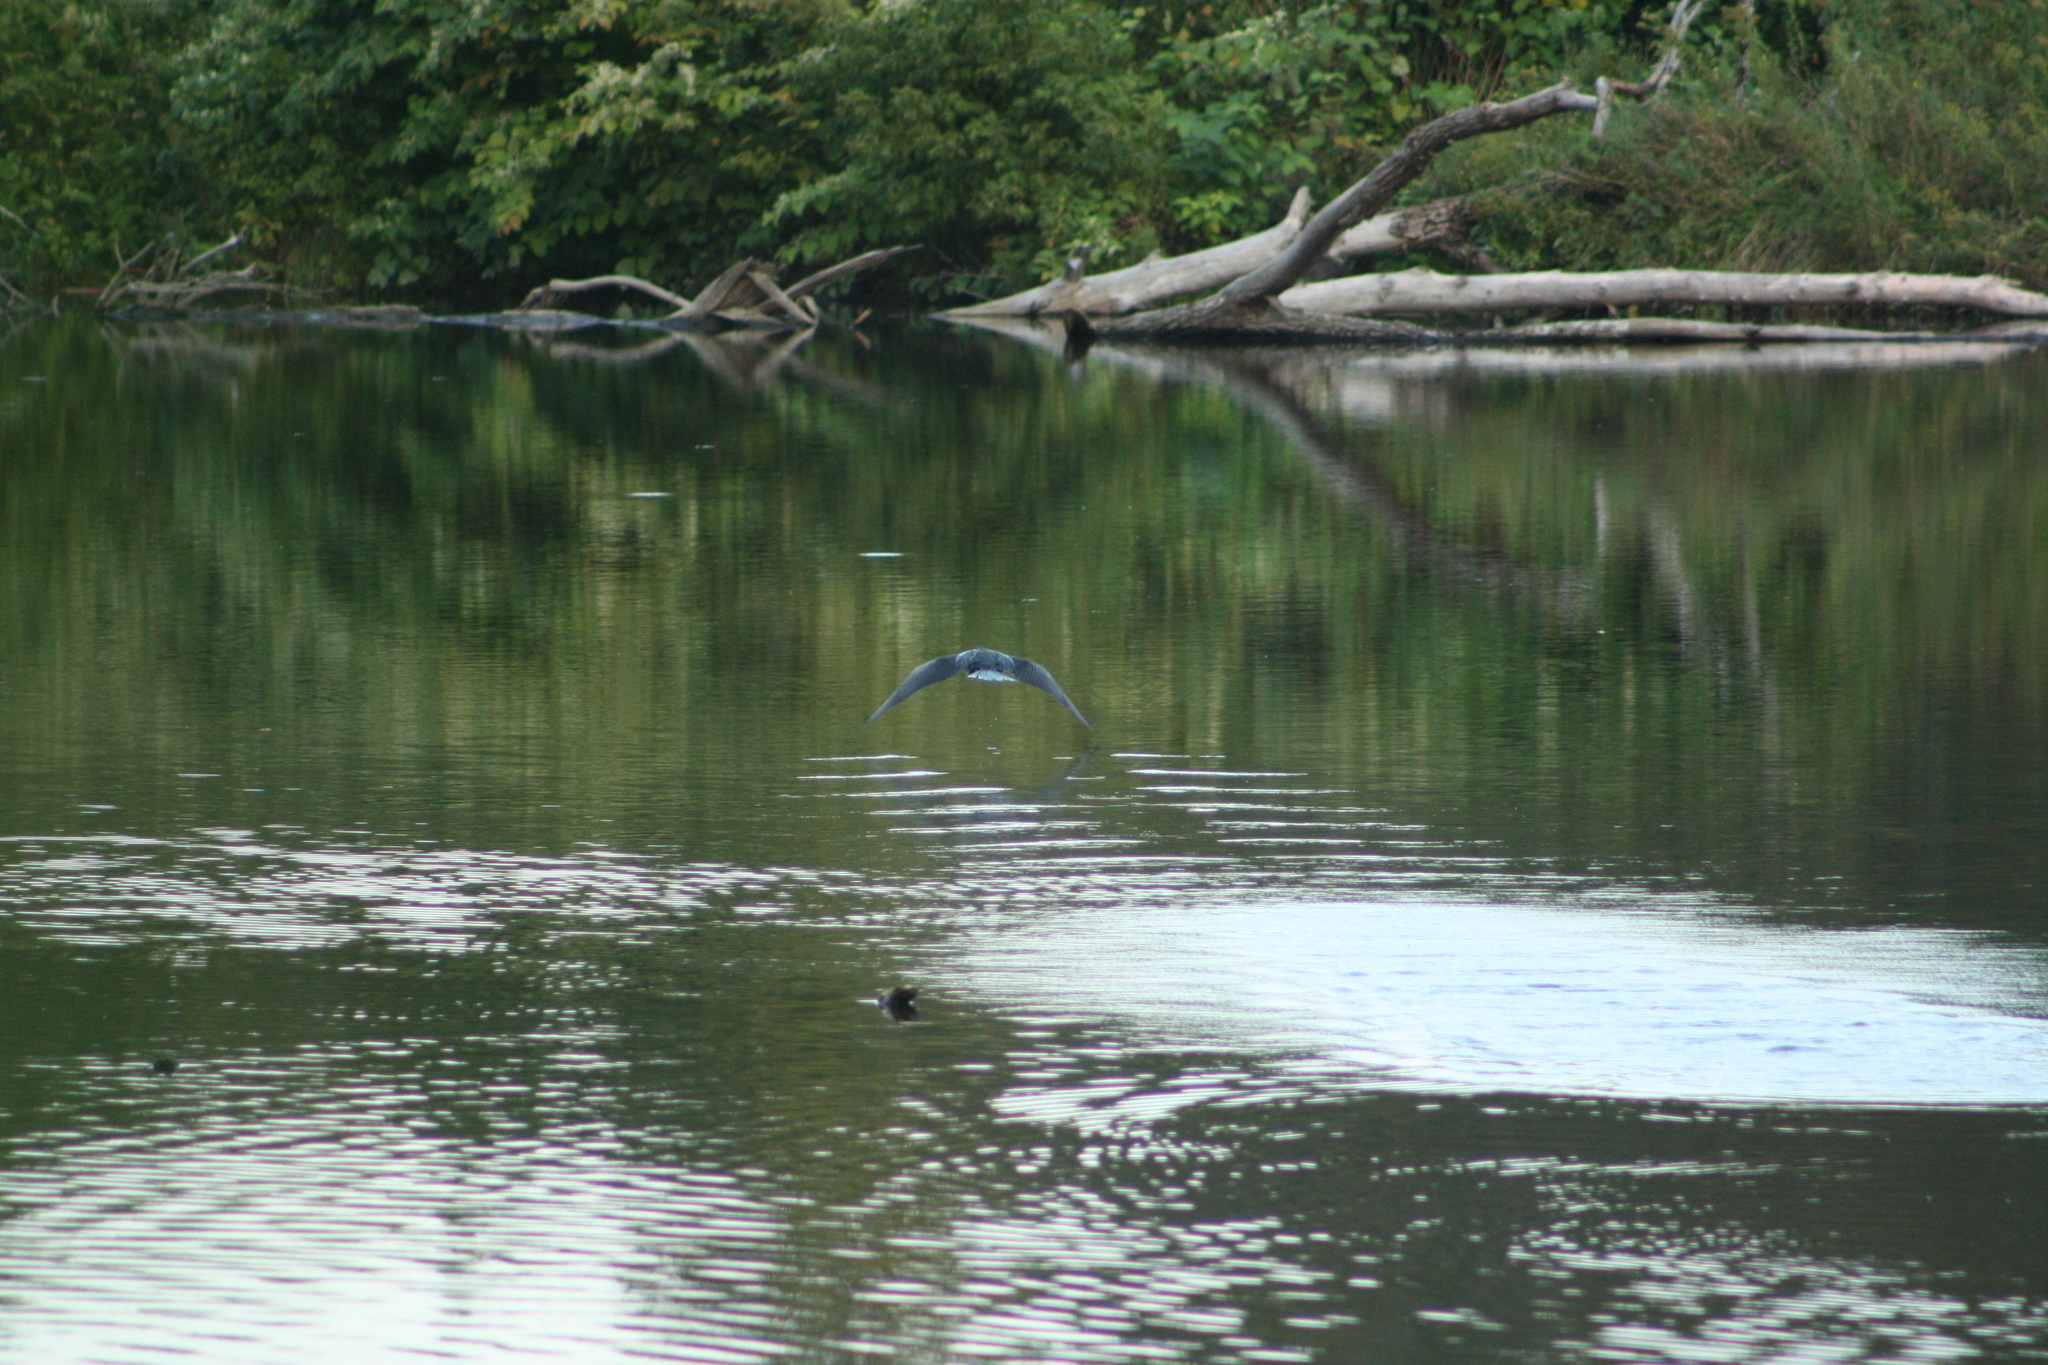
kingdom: Animalia
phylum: Chordata
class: Aves
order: Suliformes
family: Phalacrocoracidae
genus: Phalacrocorax
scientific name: Phalacrocorax auritus
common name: Double-crested cormorant
